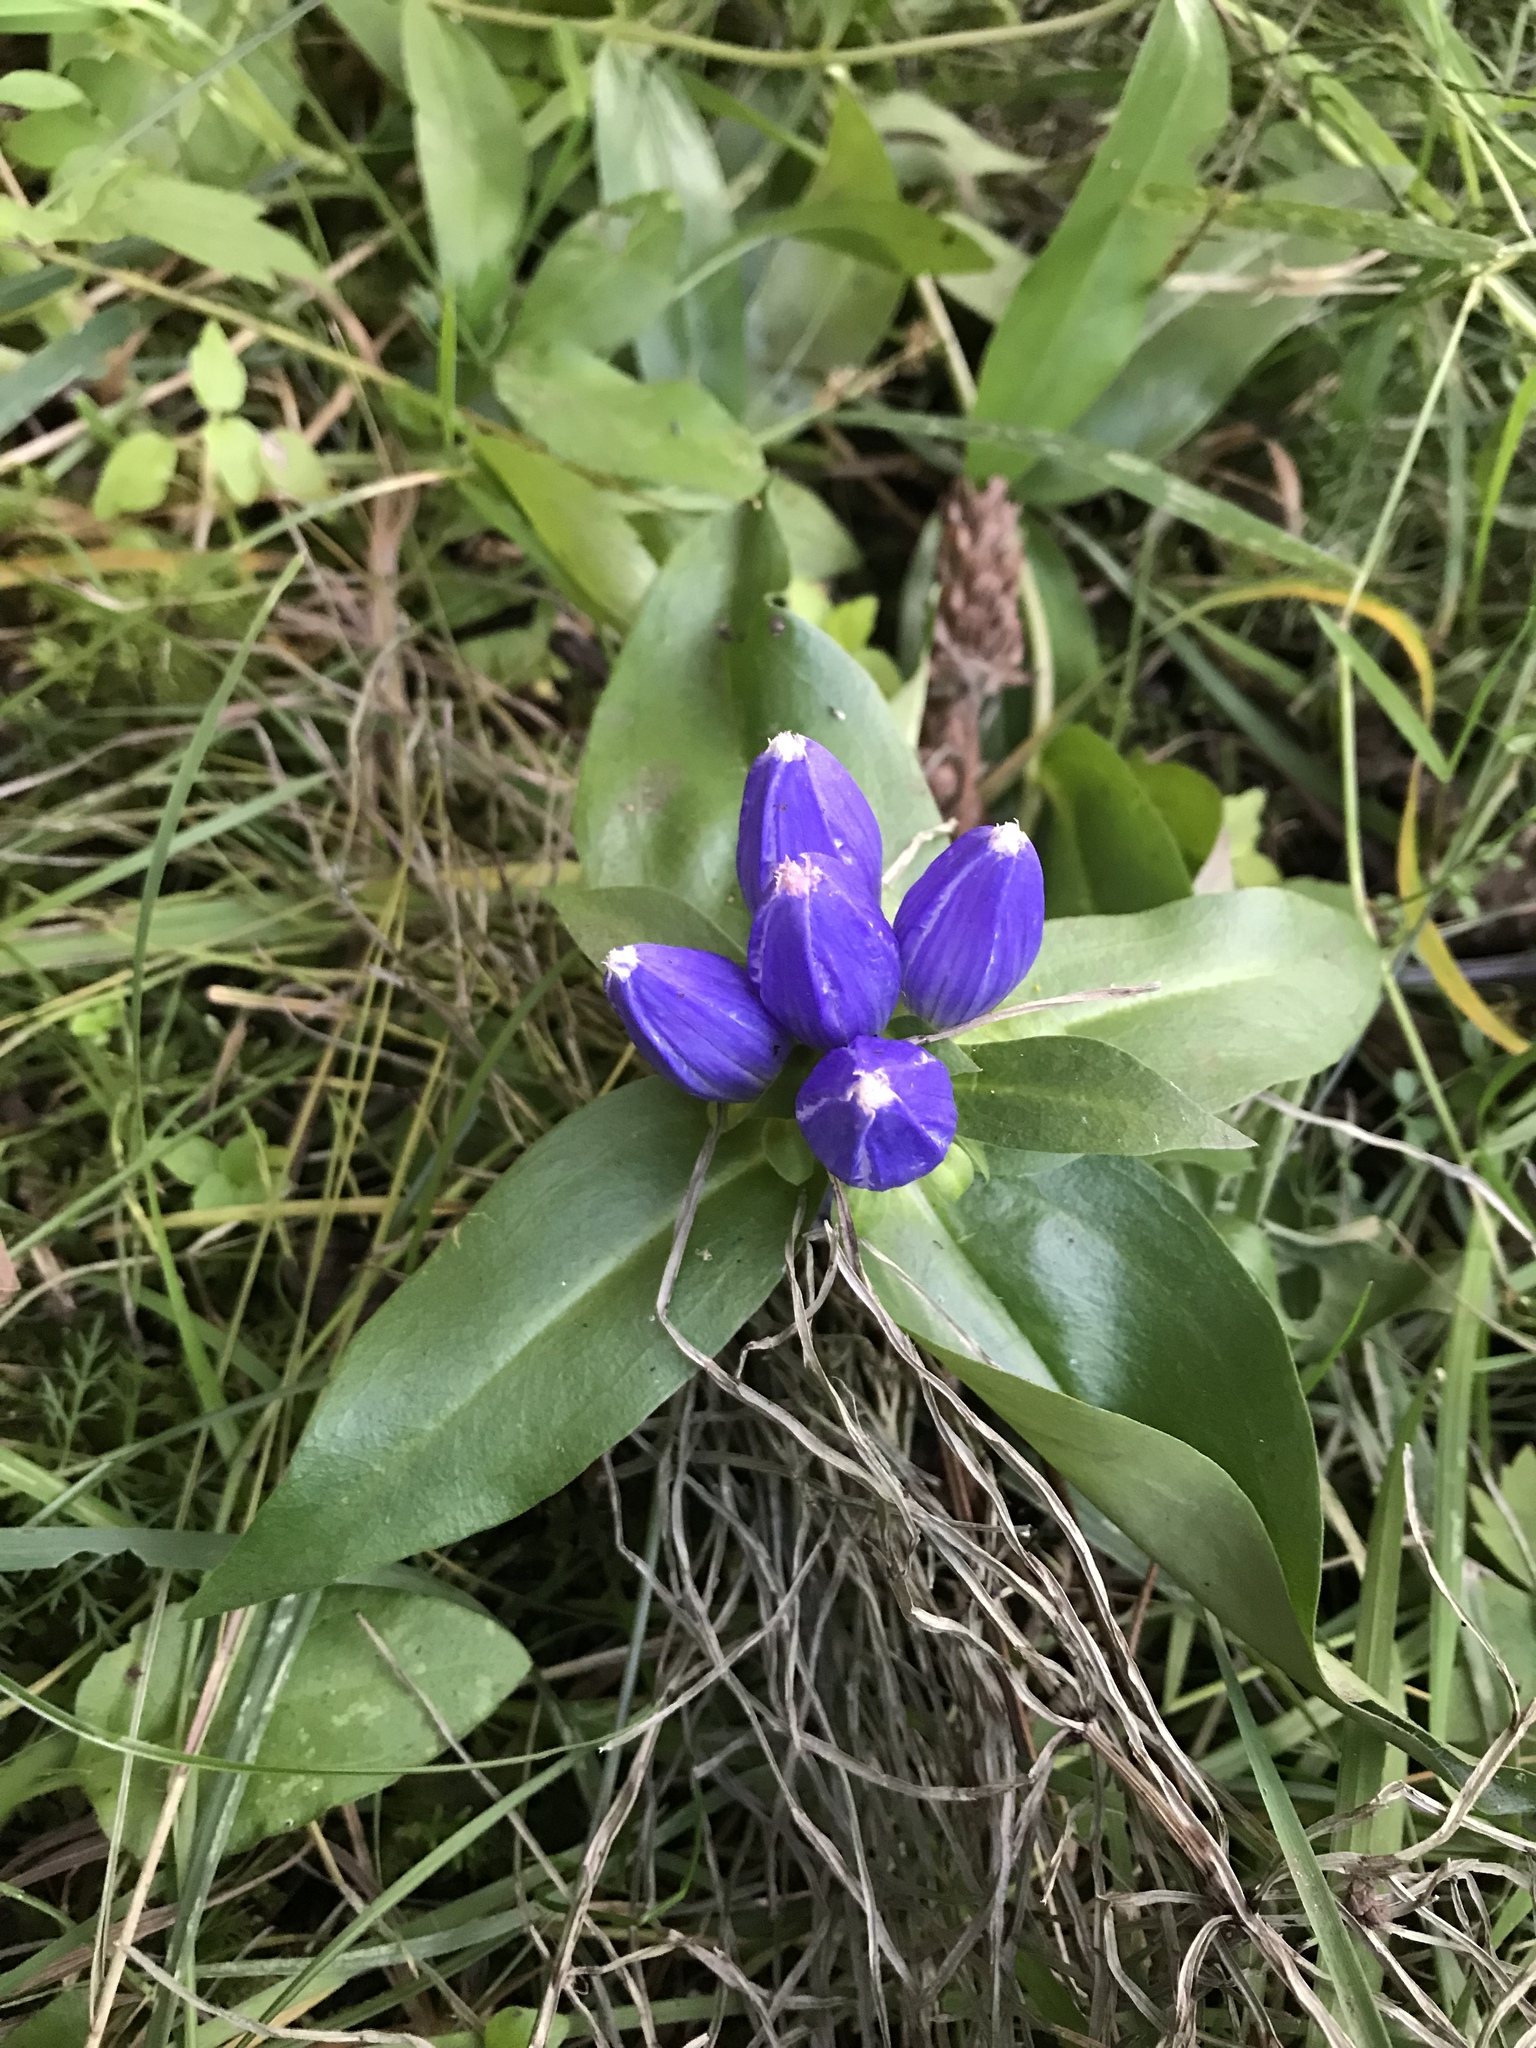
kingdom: Plantae
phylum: Tracheophyta
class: Magnoliopsida
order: Gentianales
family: Gentianaceae
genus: Gentiana
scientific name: Gentiana andrewsii
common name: Bottle gentian
